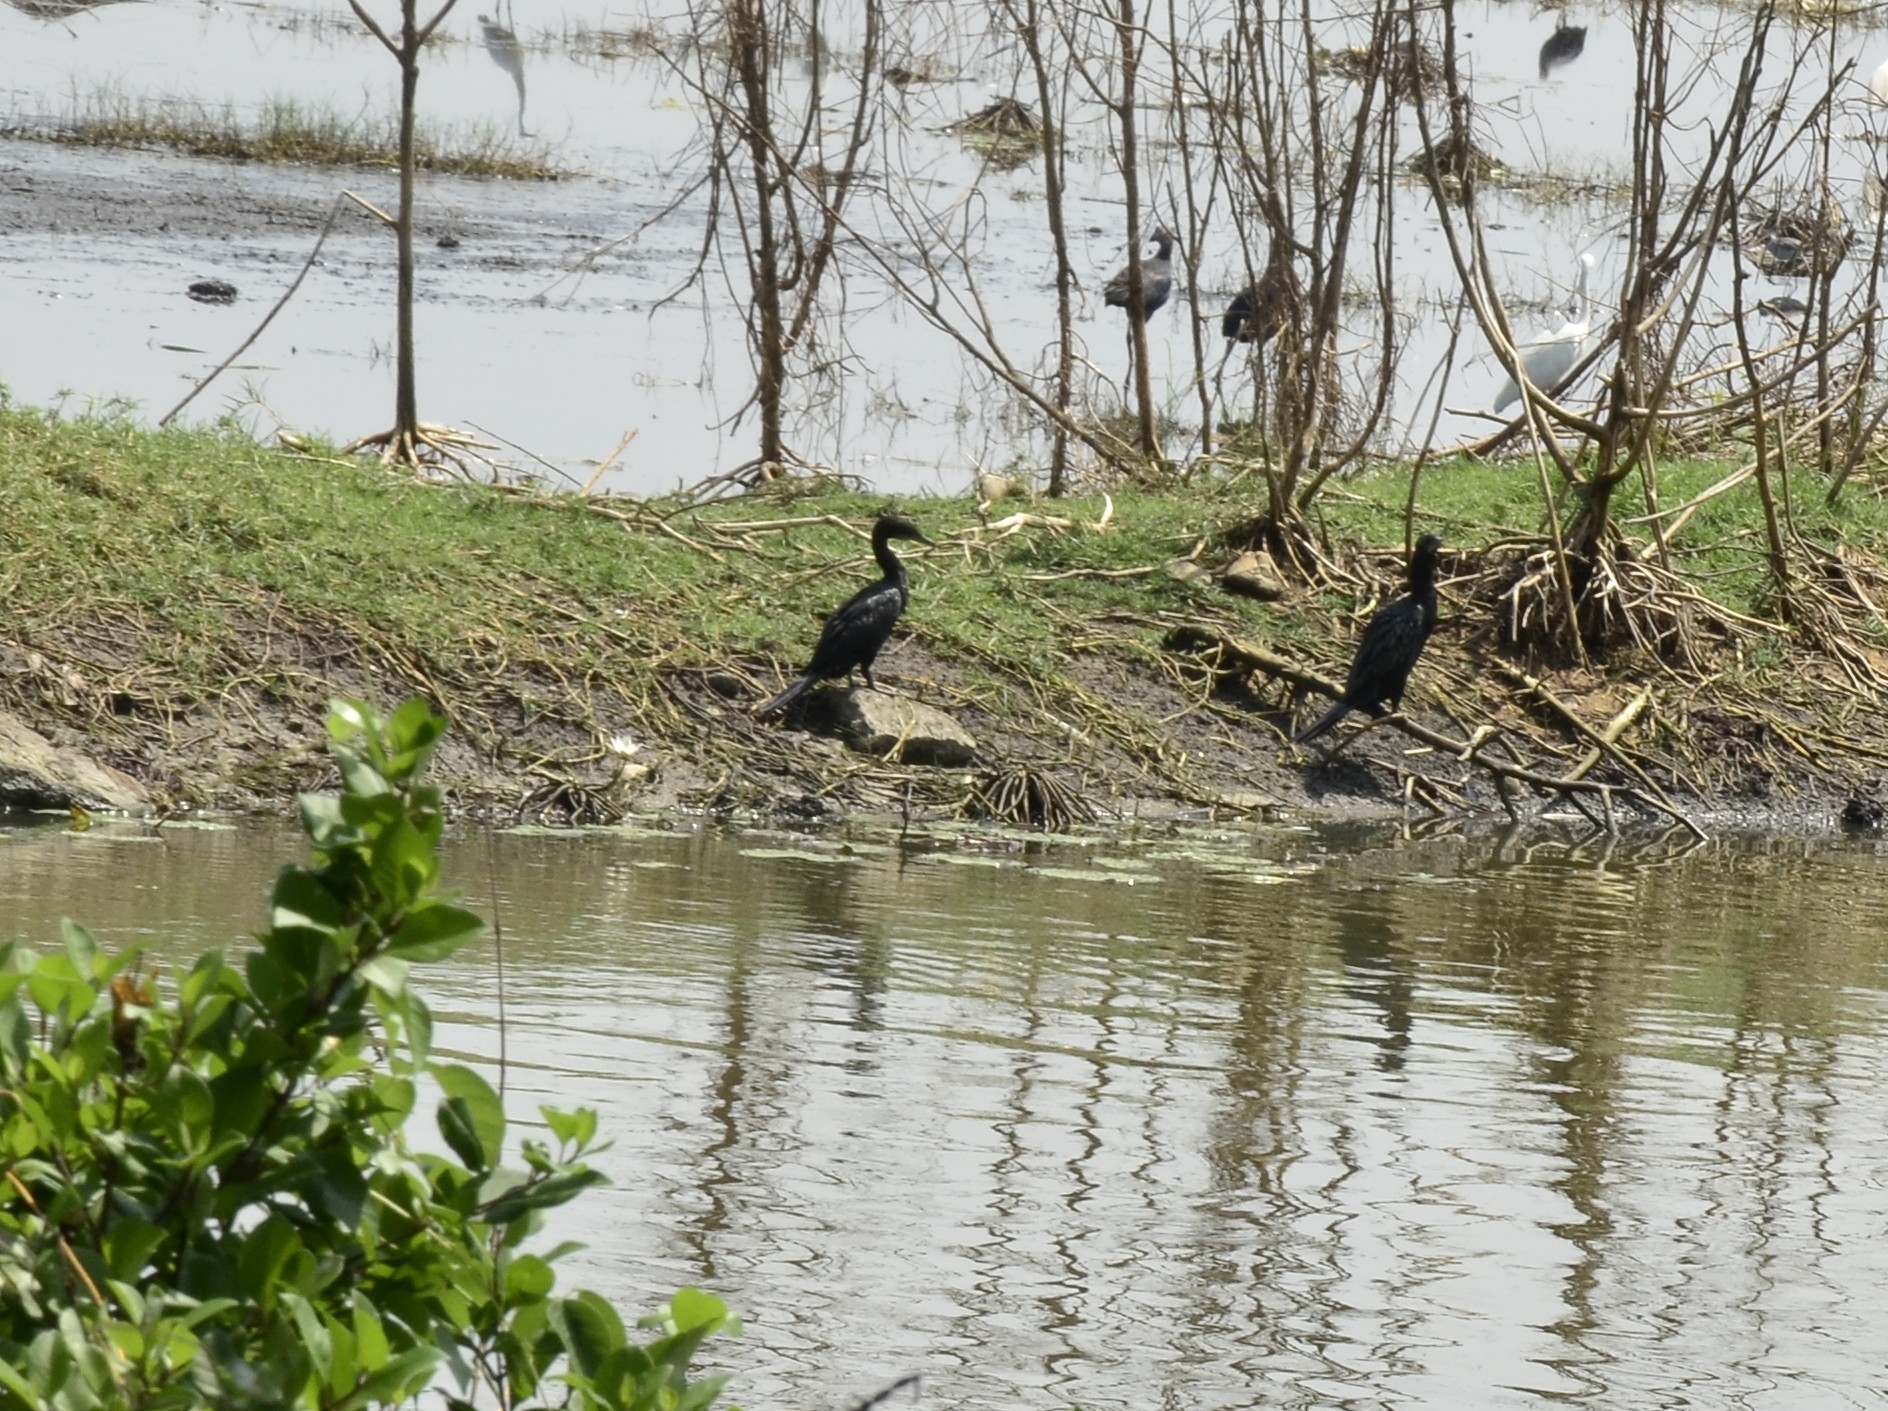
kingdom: Animalia
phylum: Chordata
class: Aves
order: Suliformes
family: Phalacrocoracidae
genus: Microcarbo
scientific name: Microcarbo niger
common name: Little cormorant
